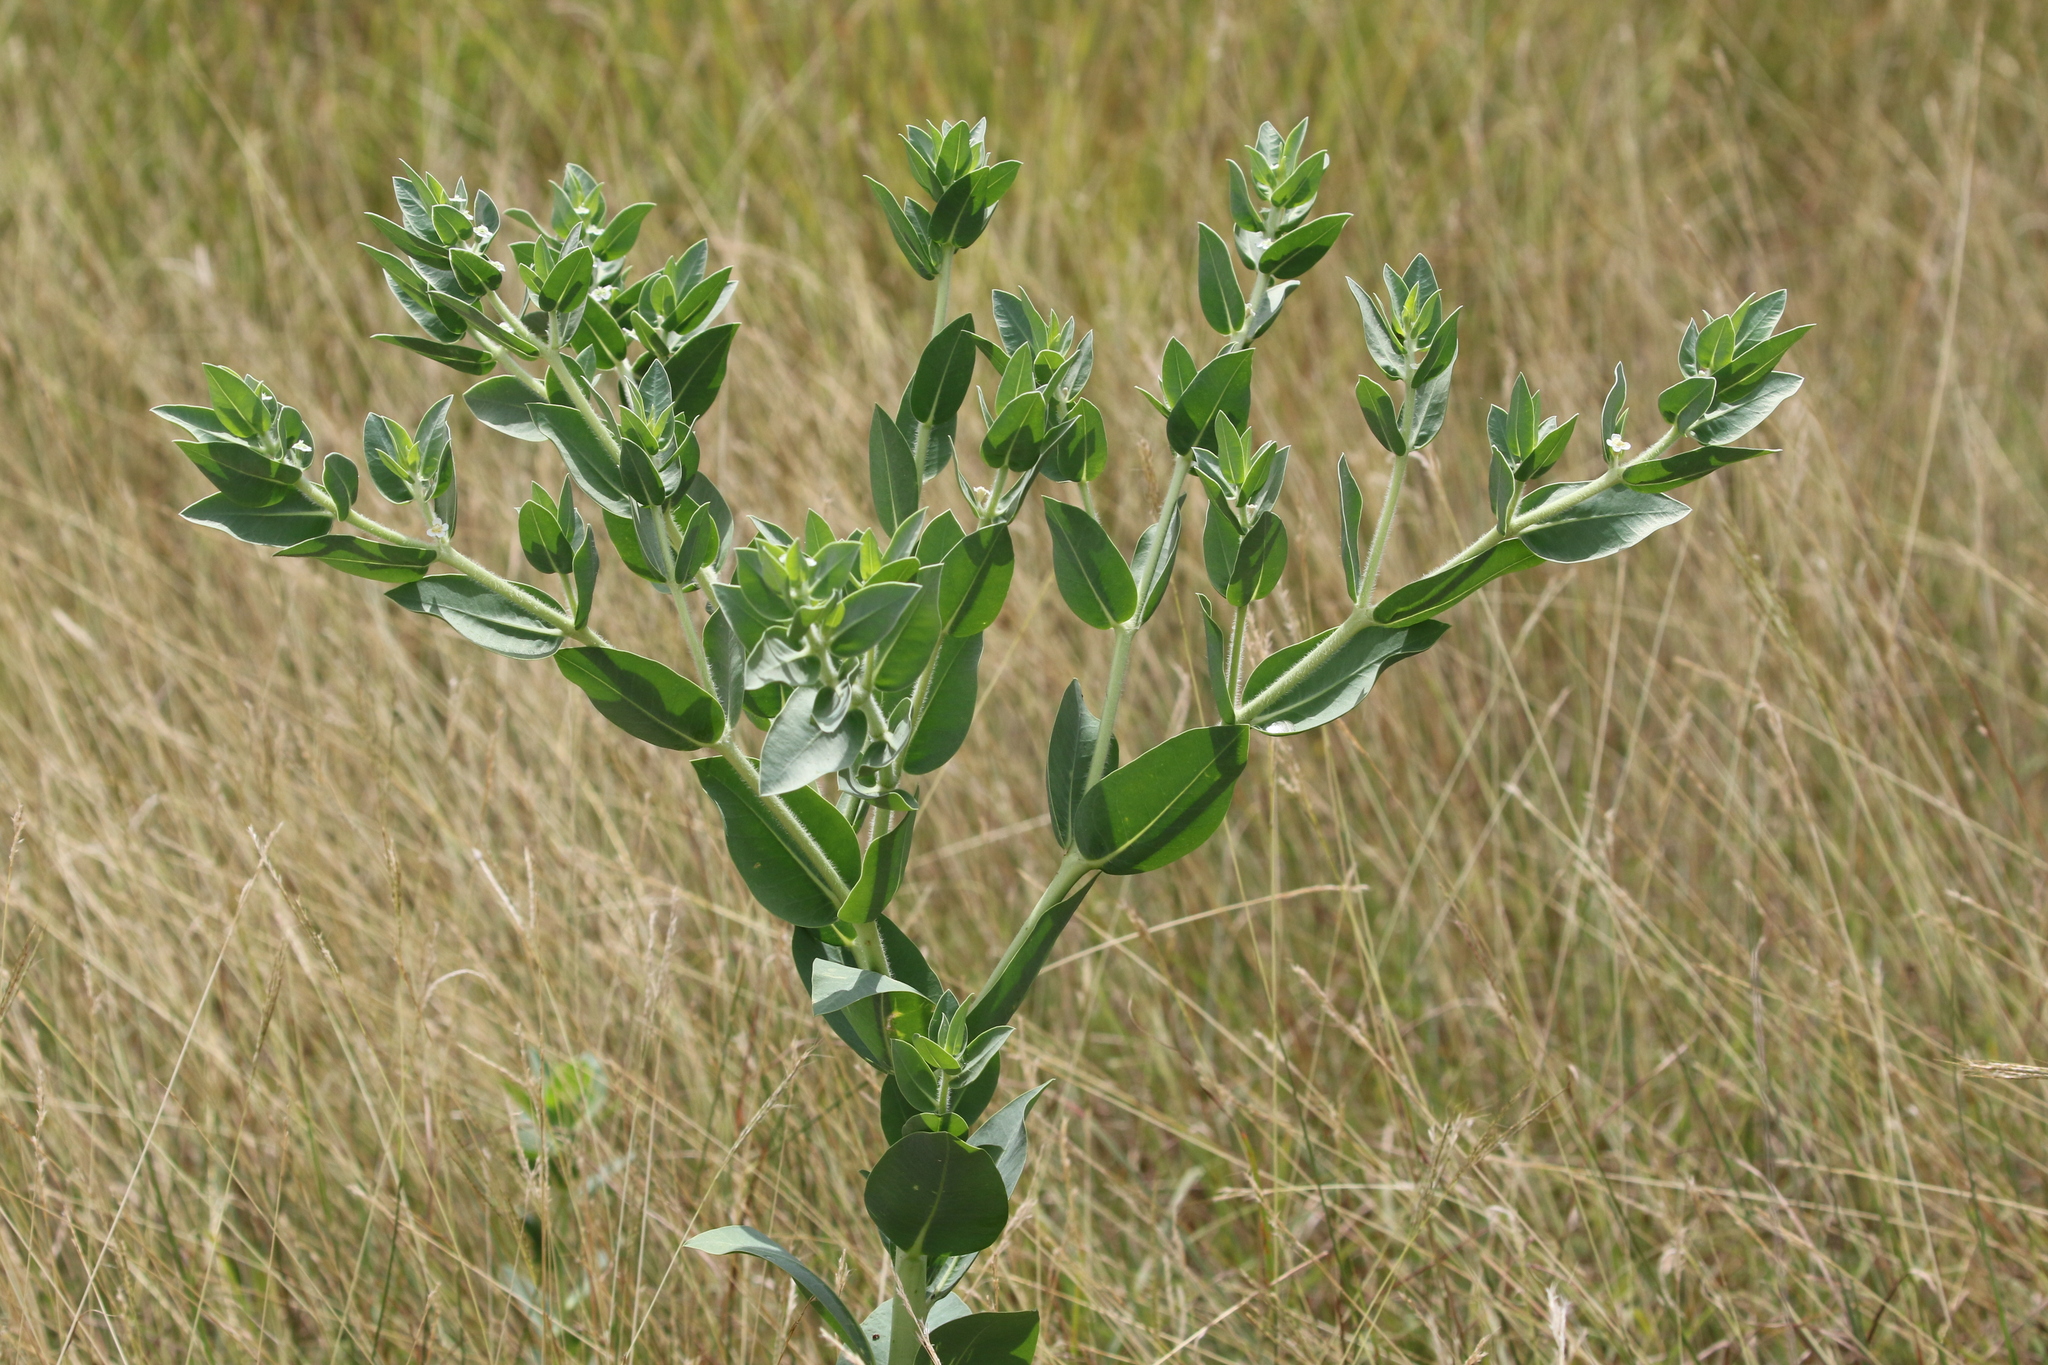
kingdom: Plantae
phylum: Tracheophyta
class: Magnoliopsida
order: Malpighiales
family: Euphorbiaceae
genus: Euphorbia
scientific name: Euphorbia marginata
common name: Ghostweed
